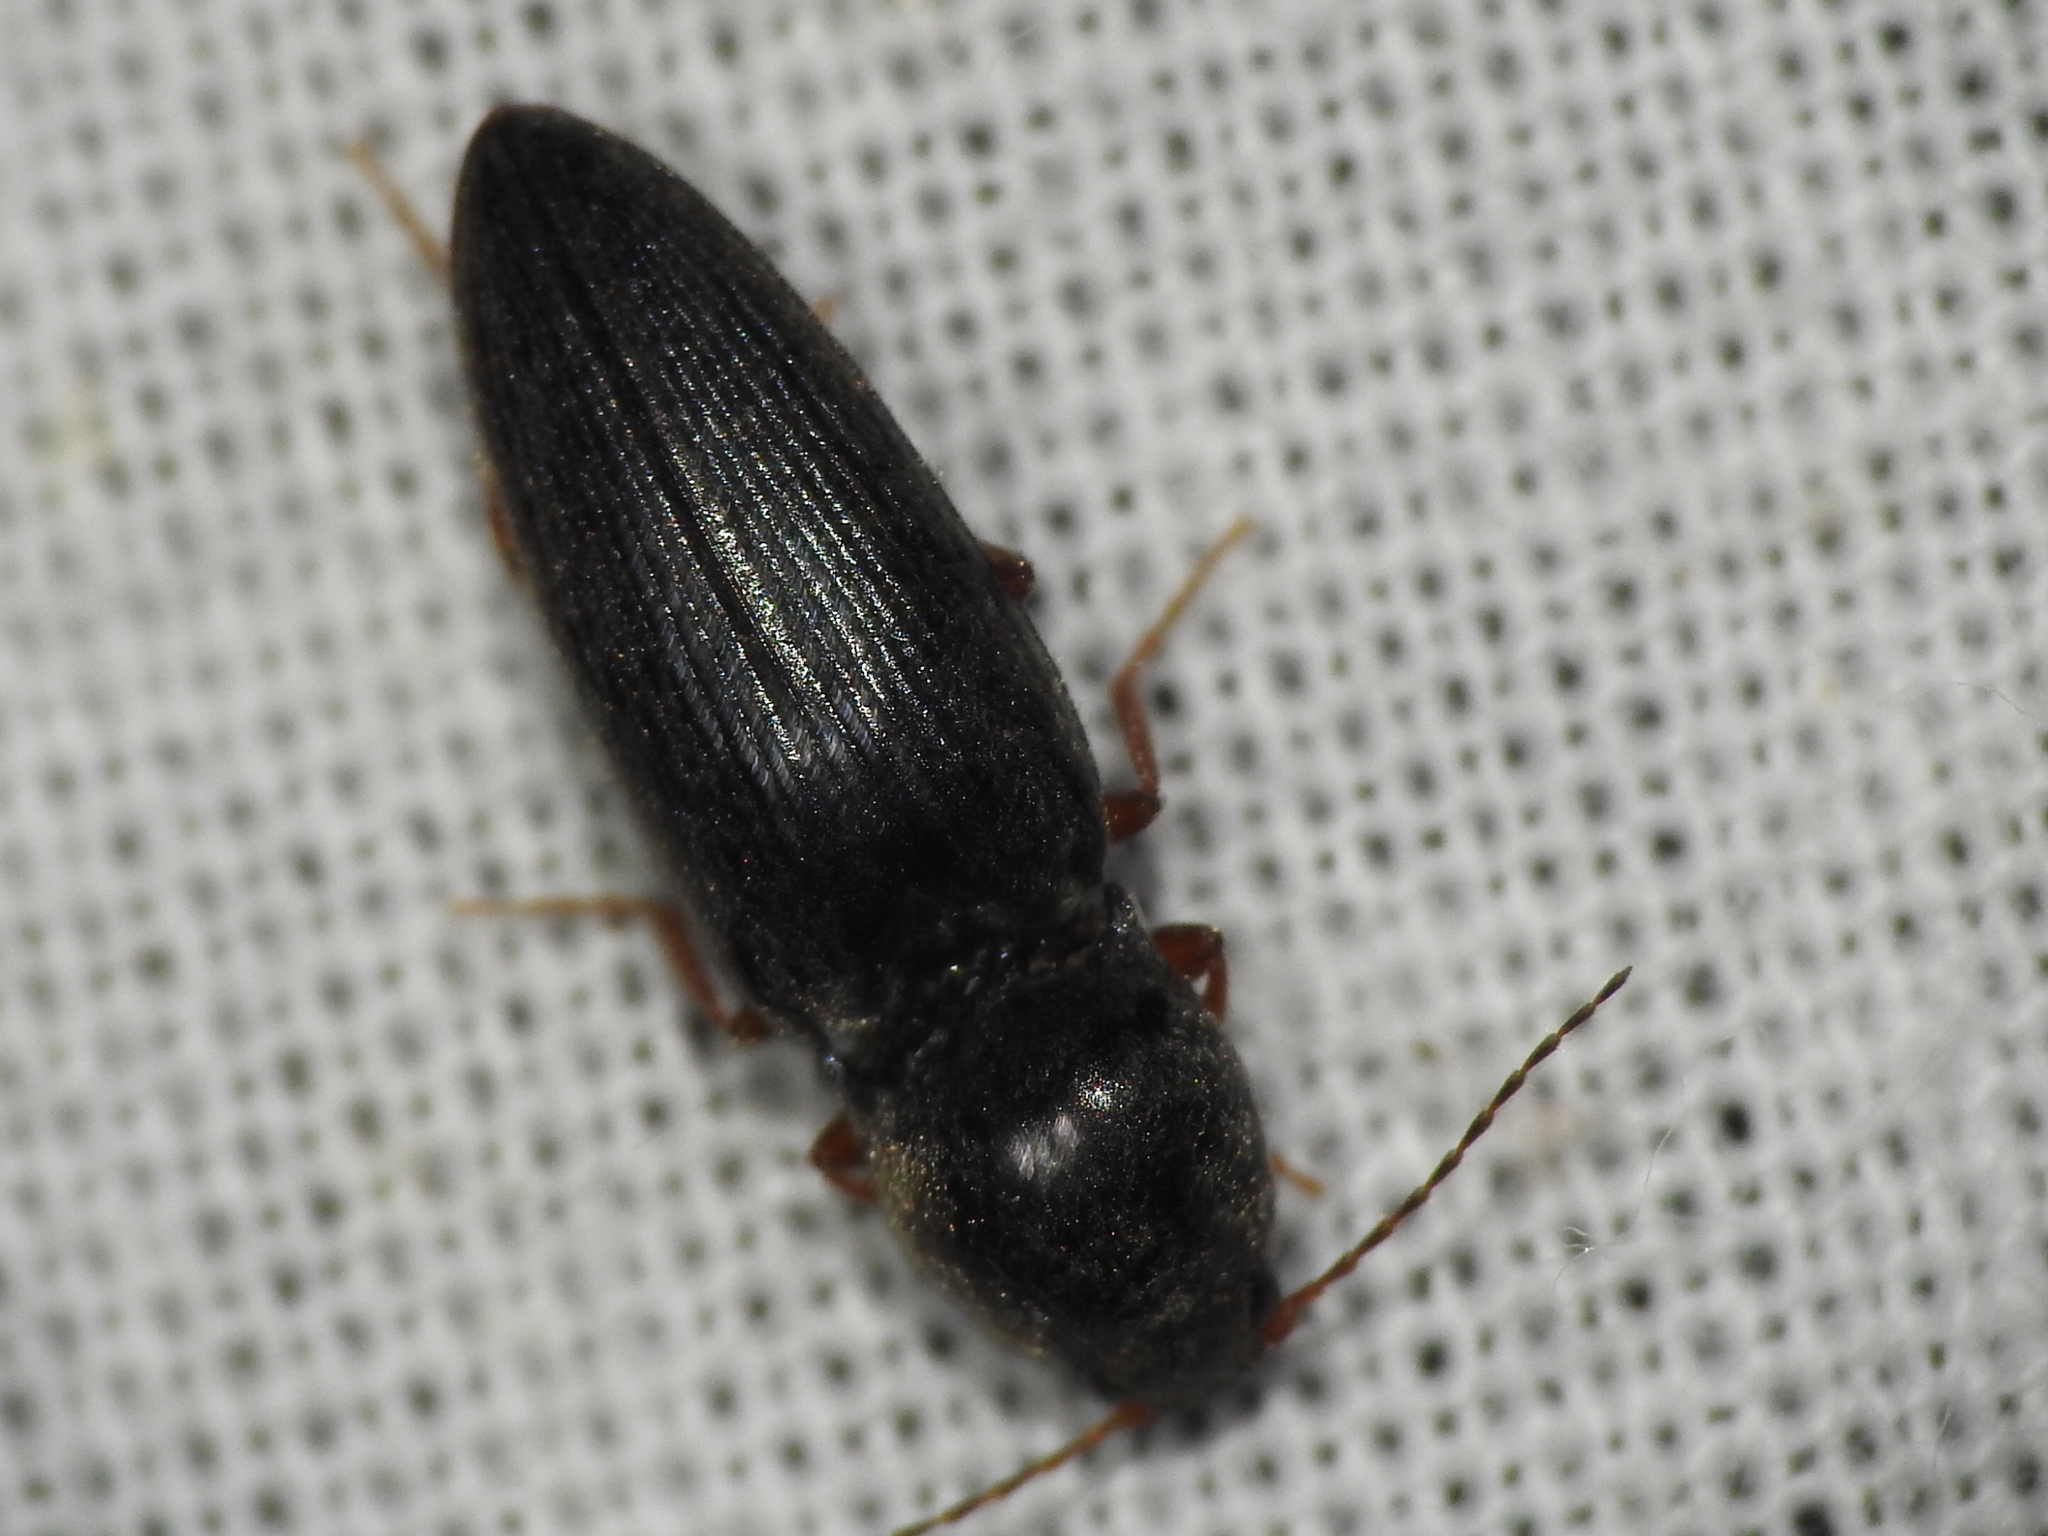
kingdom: Animalia
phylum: Arthropoda
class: Insecta
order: Coleoptera
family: Elateridae
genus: Cardiophorus
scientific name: Cardiophorus convexus
